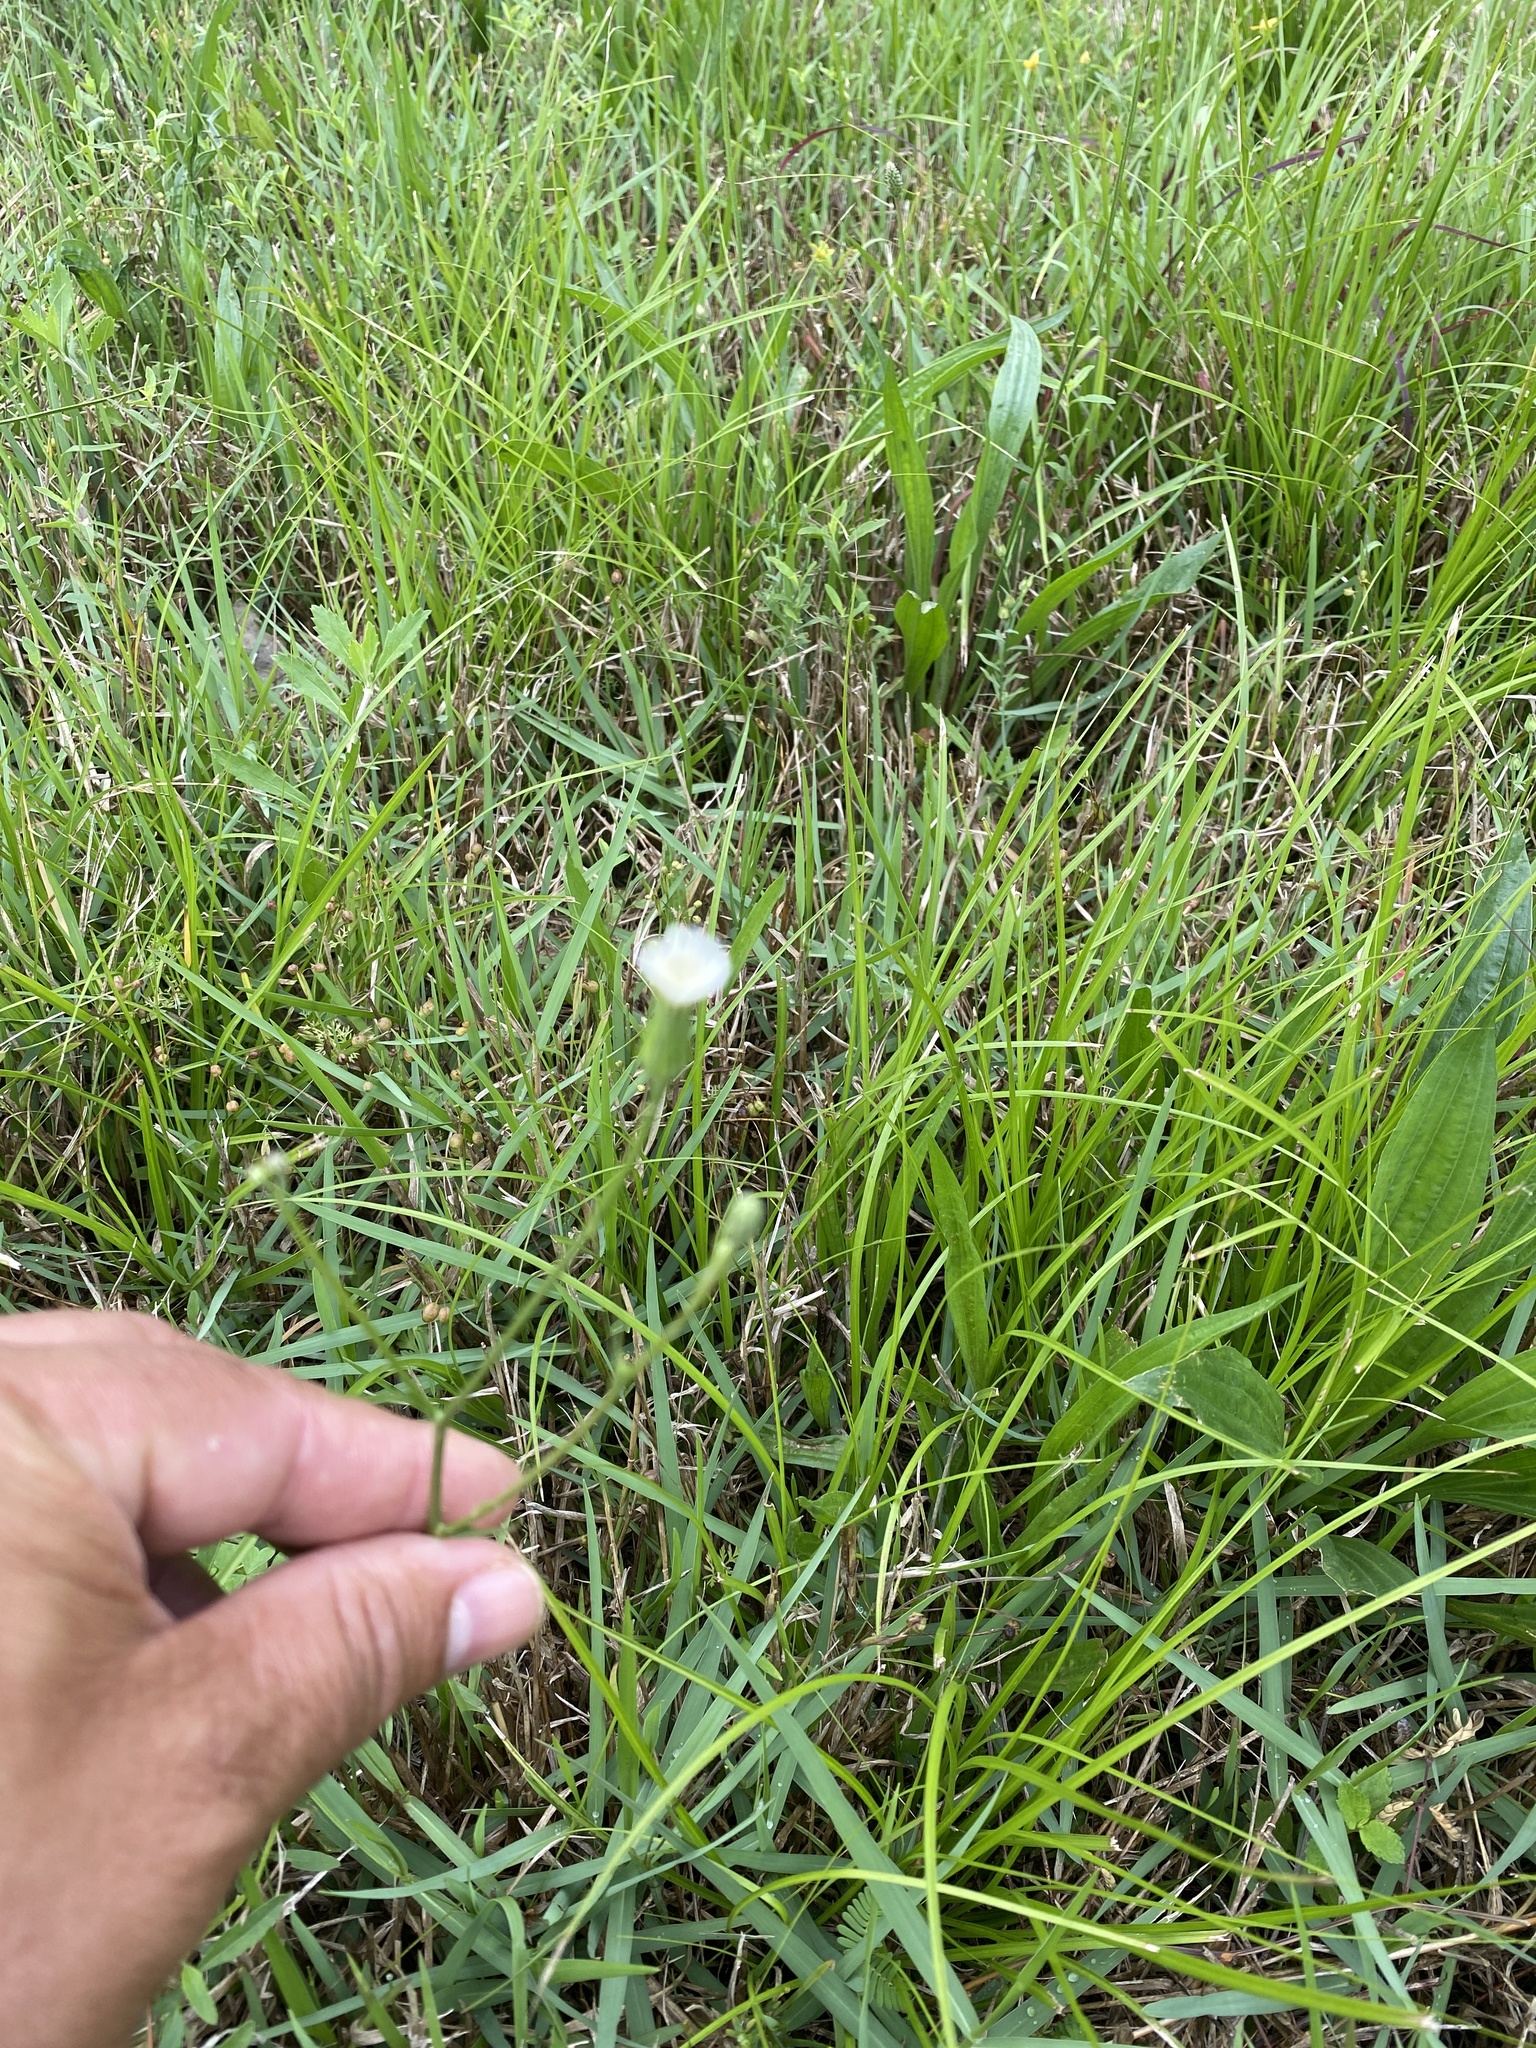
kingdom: Plantae
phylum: Tracheophyta
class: Magnoliopsida
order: Asterales
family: Asteraceae
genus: Hypochaeris
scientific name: Hypochaeris albiflora
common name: White flatweed
